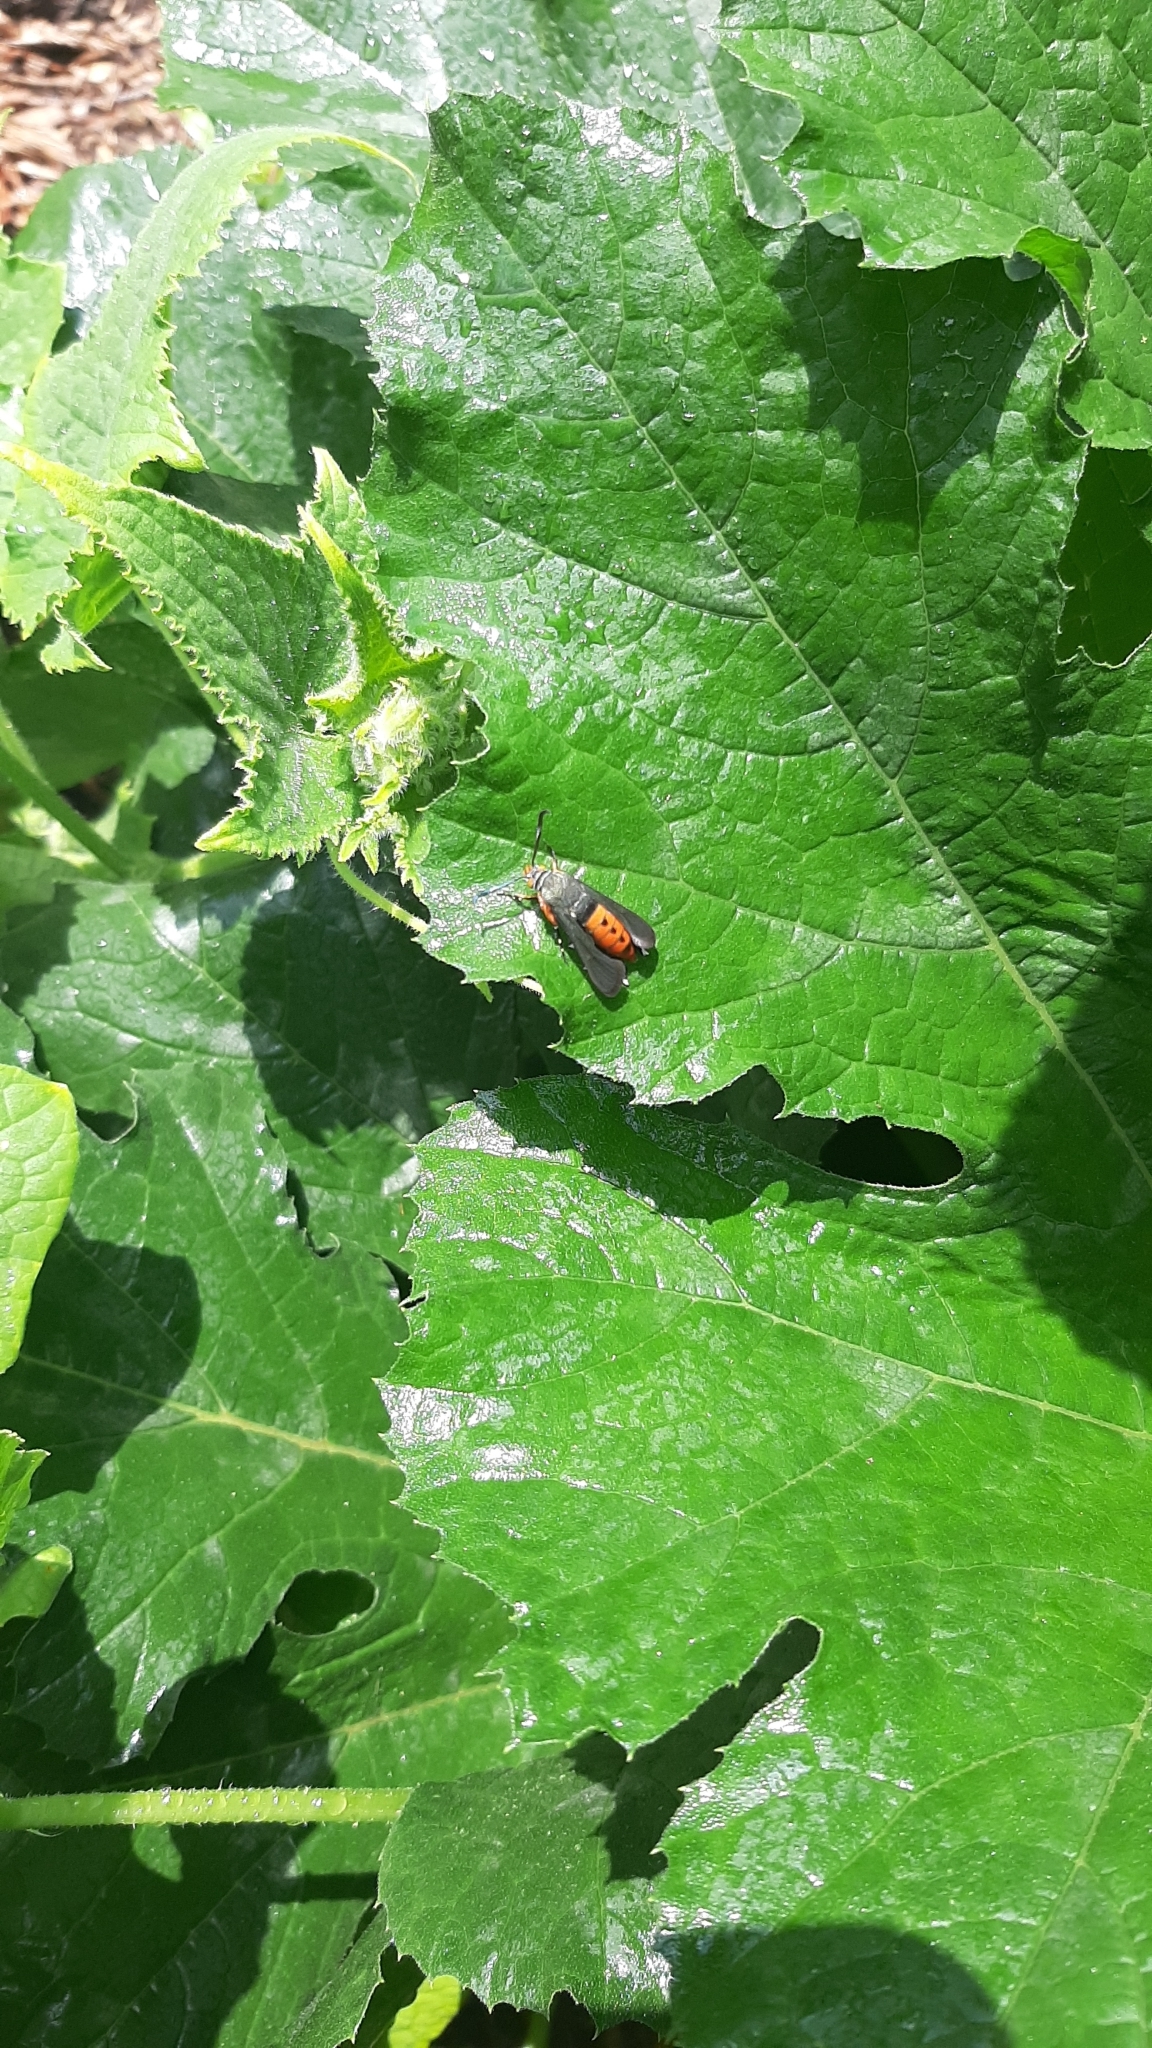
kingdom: Animalia
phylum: Arthropoda
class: Insecta
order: Lepidoptera
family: Sesiidae
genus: Eichlinia
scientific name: Eichlinia cucurbitae
